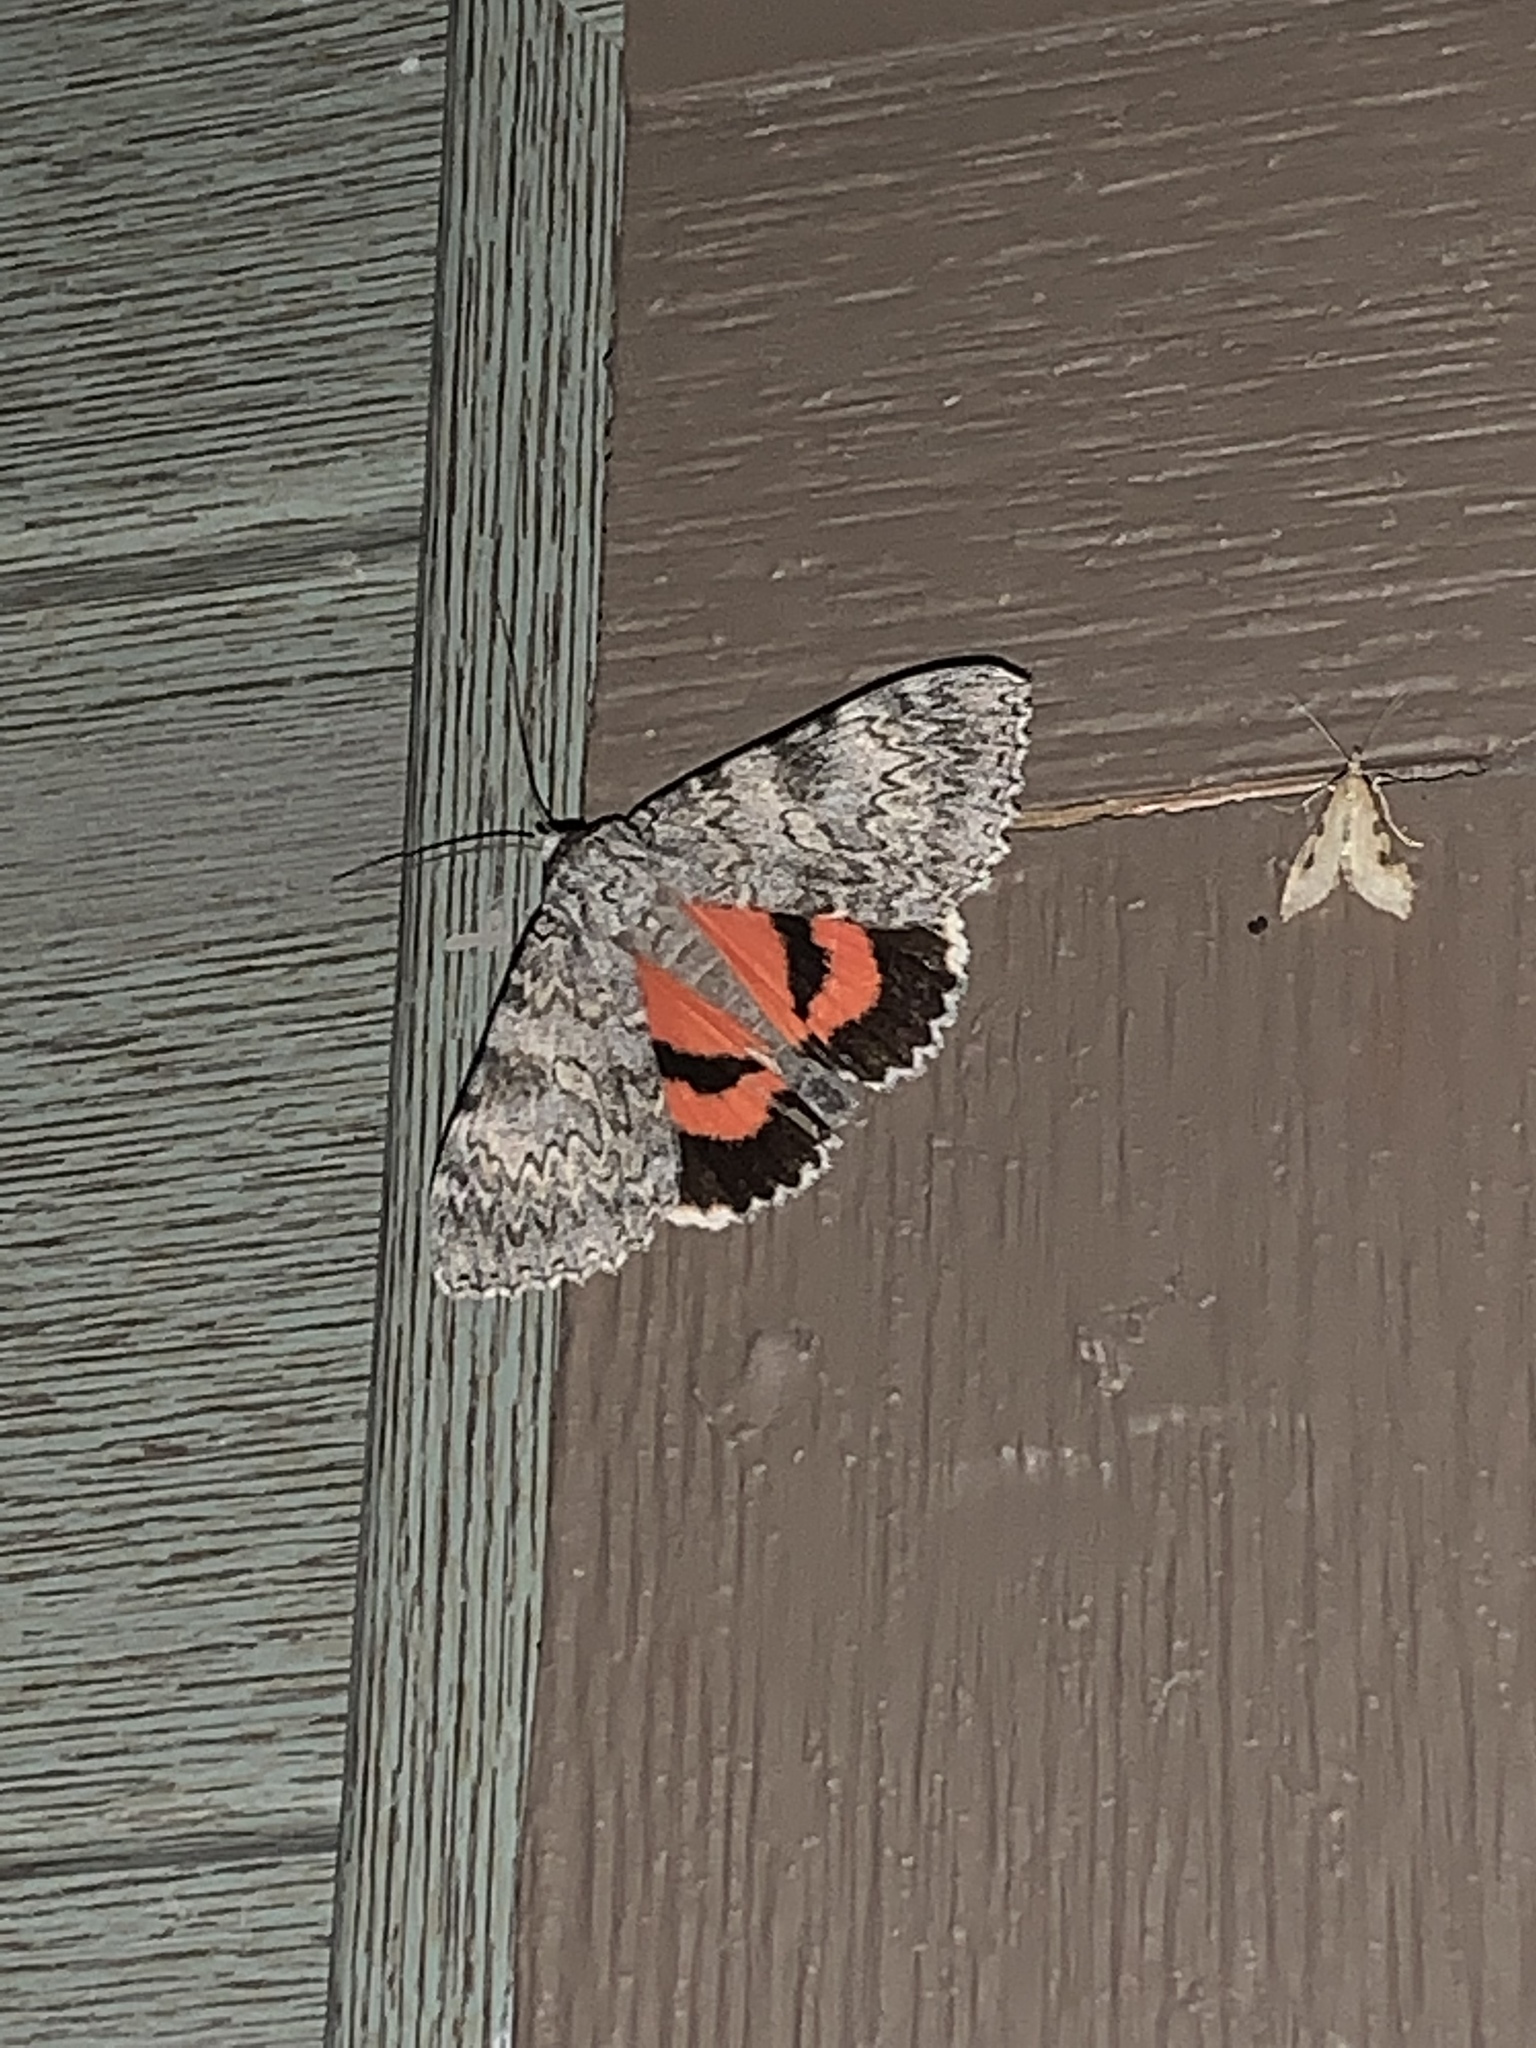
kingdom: Animalia
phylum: Arthropoda
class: Insecta
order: Lepidoptera
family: Erebidae
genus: Catocala
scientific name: Catocala semirelicta
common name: Semirelict underwing moth
